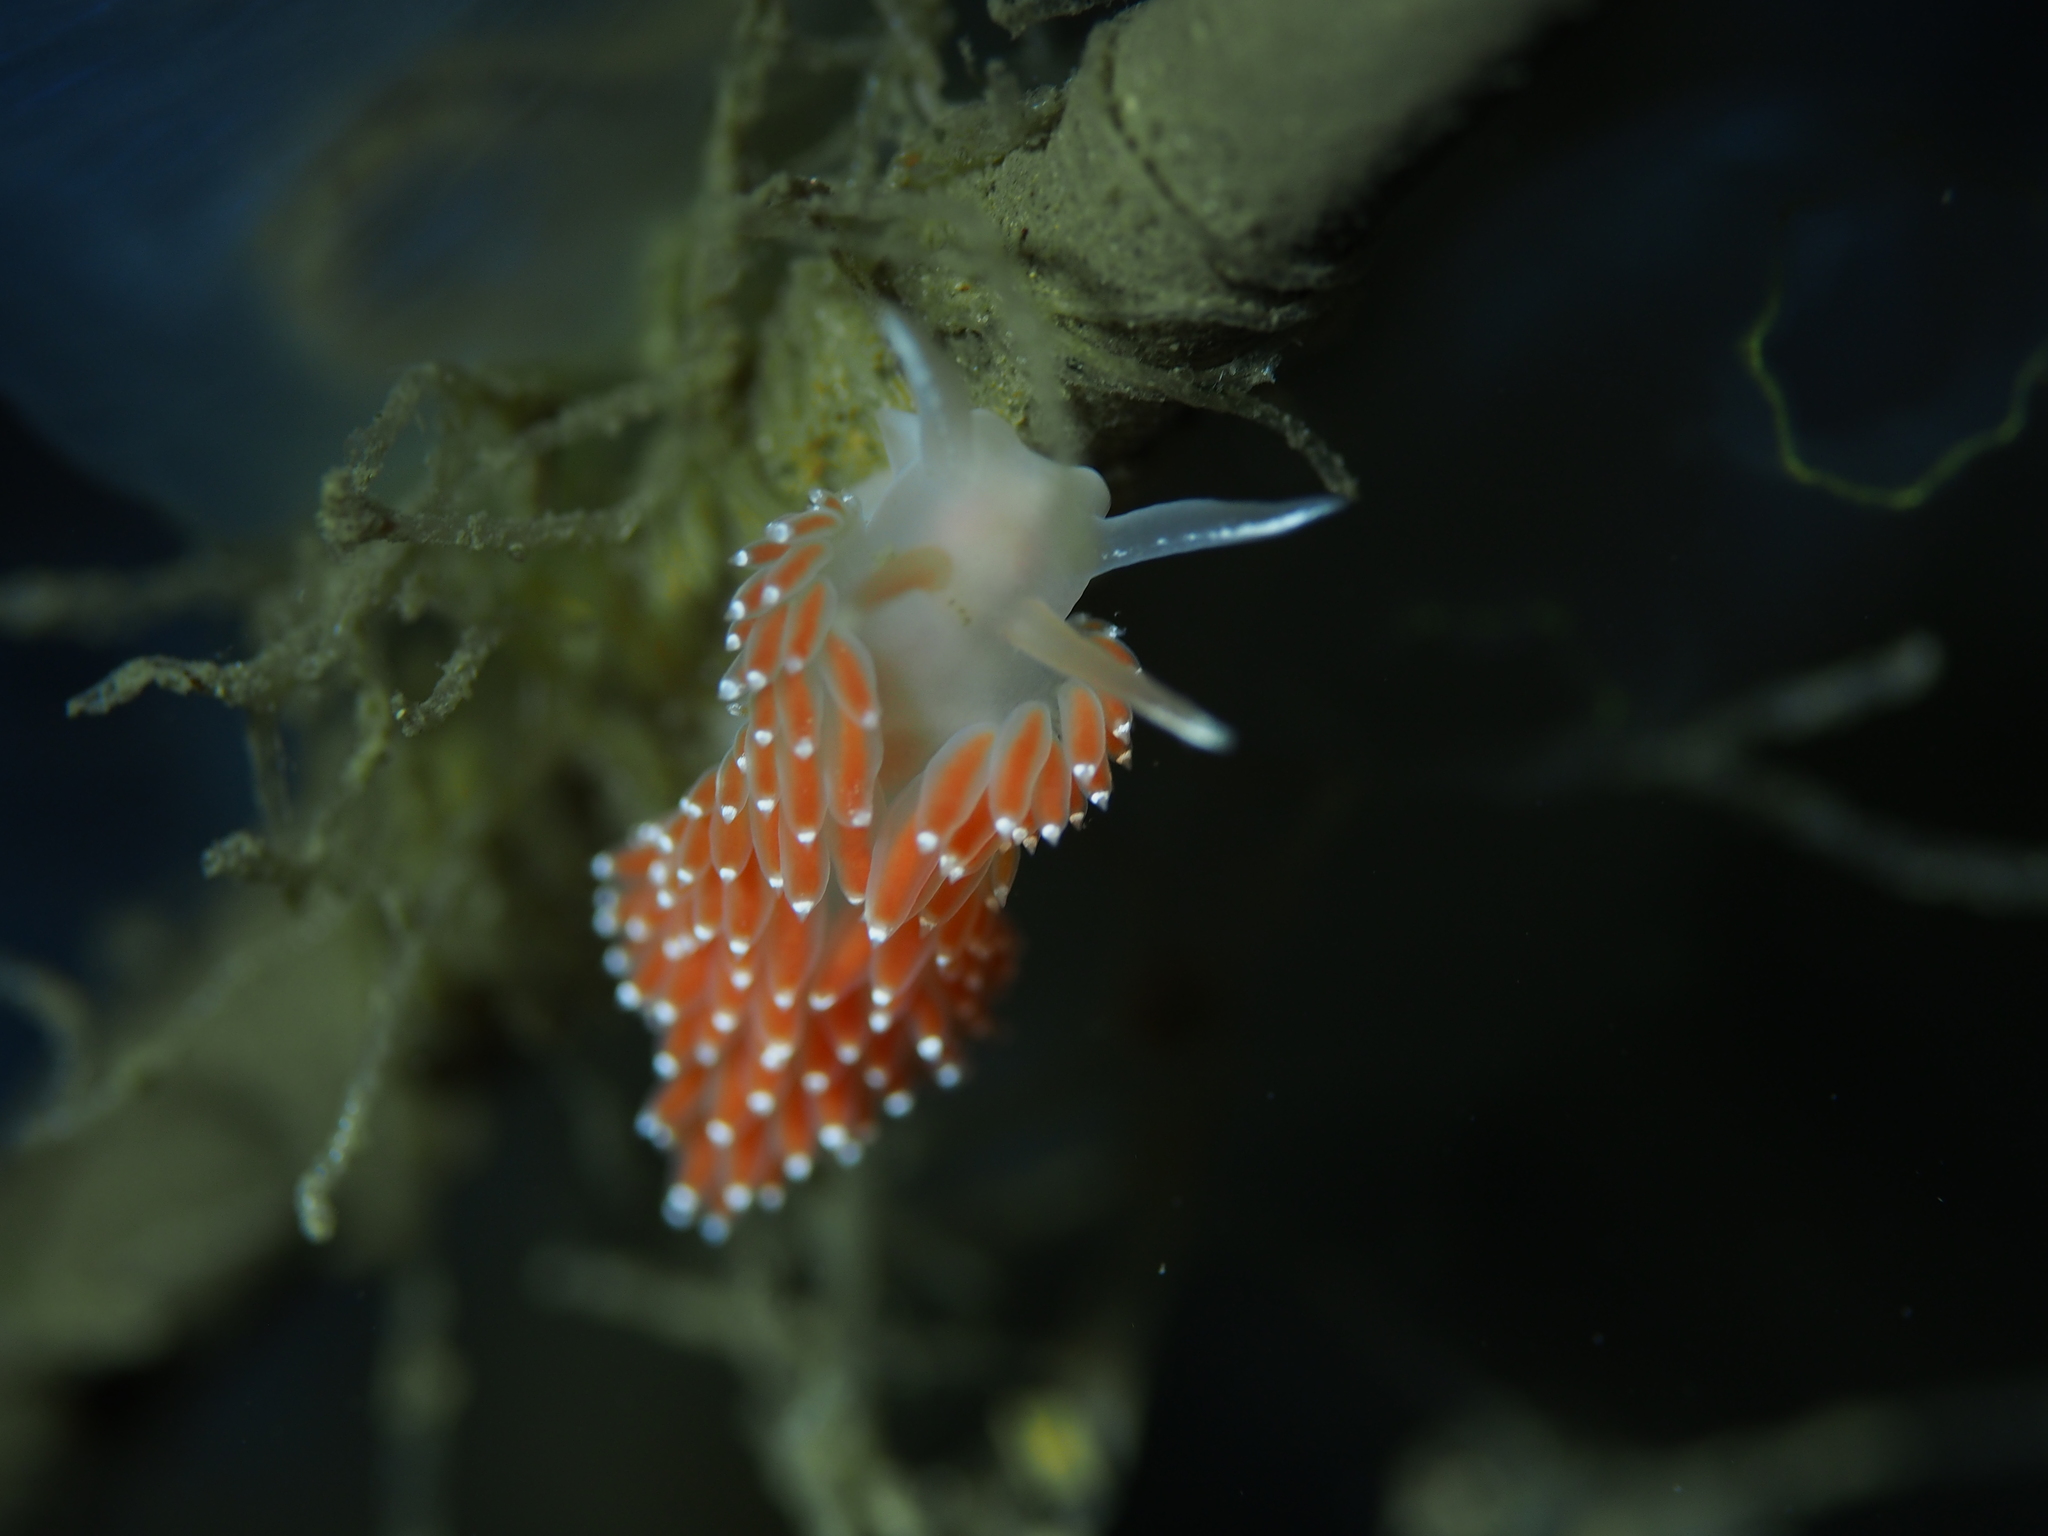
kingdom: Animalia
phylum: Mollusca
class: Gastropoda
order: Nudibranchia
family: Coryphellidae
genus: Coryphella
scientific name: Coryphella verrucosa
